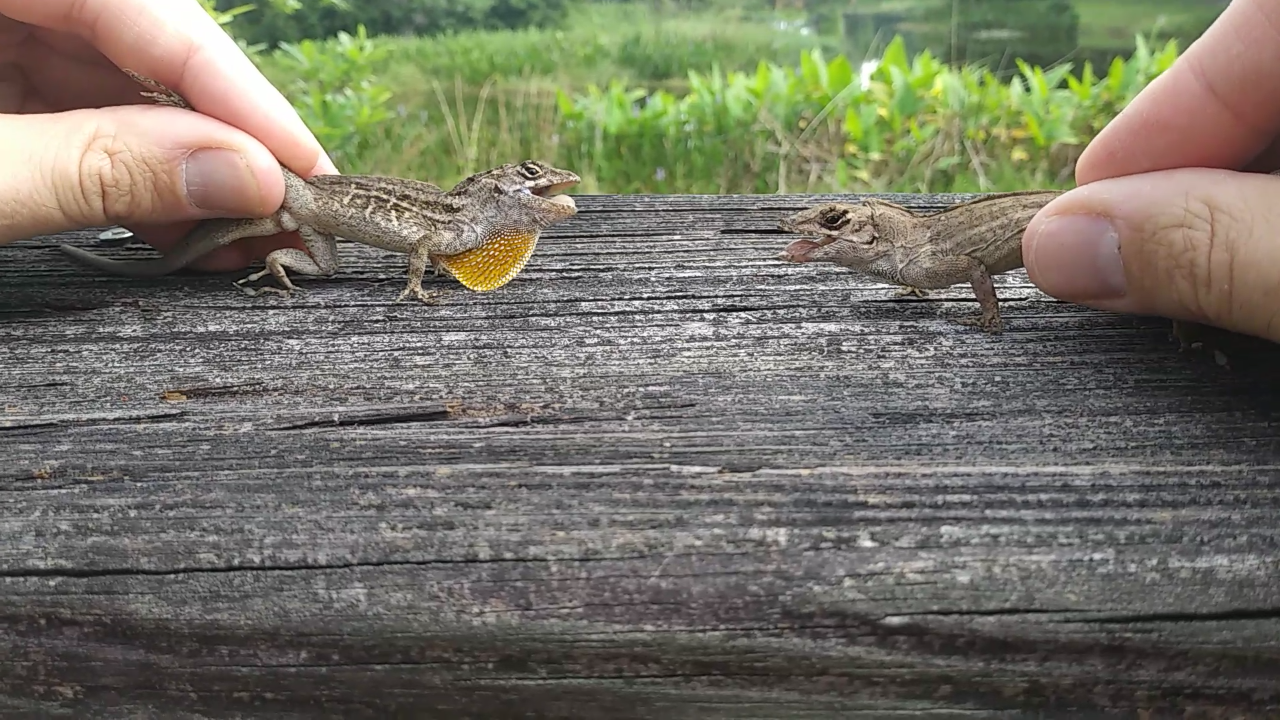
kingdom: Animalia
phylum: Chordata
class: Squamata
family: Dactyloidae
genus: Anolis
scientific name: Anolis sagrei
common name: Brown anole
